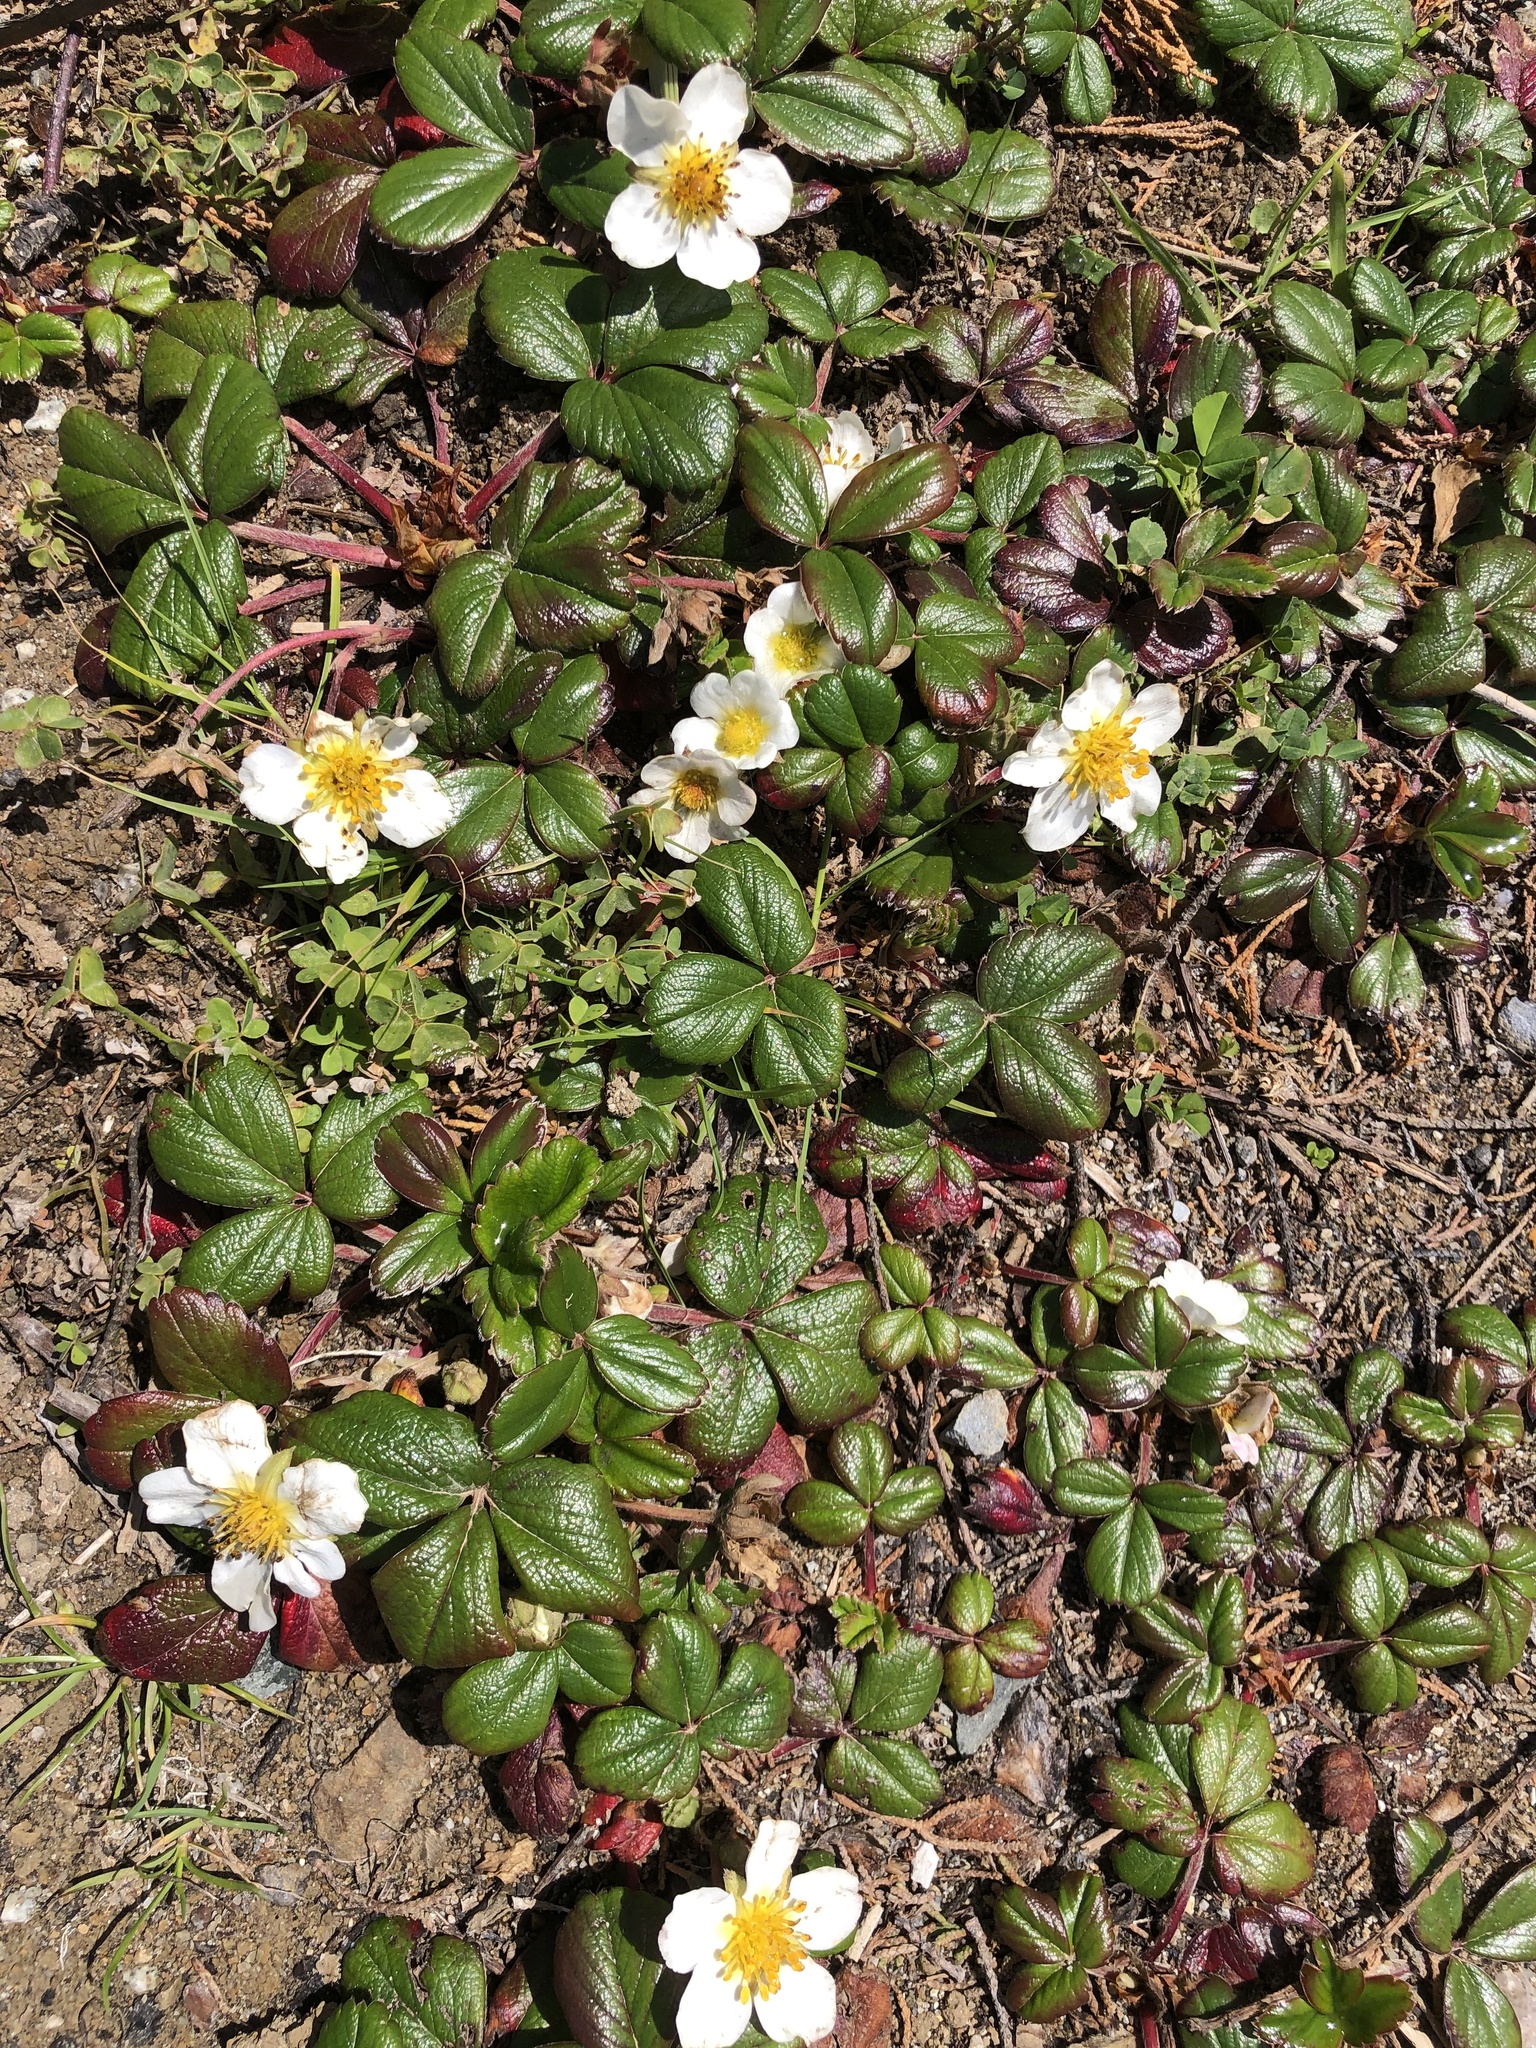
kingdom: Plantae
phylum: Tracheophyta
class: Magnoliopsida
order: Rosales
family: Rosaceae
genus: Fragaria
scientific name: Fragaria chiloensis
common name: Beach strawberry
